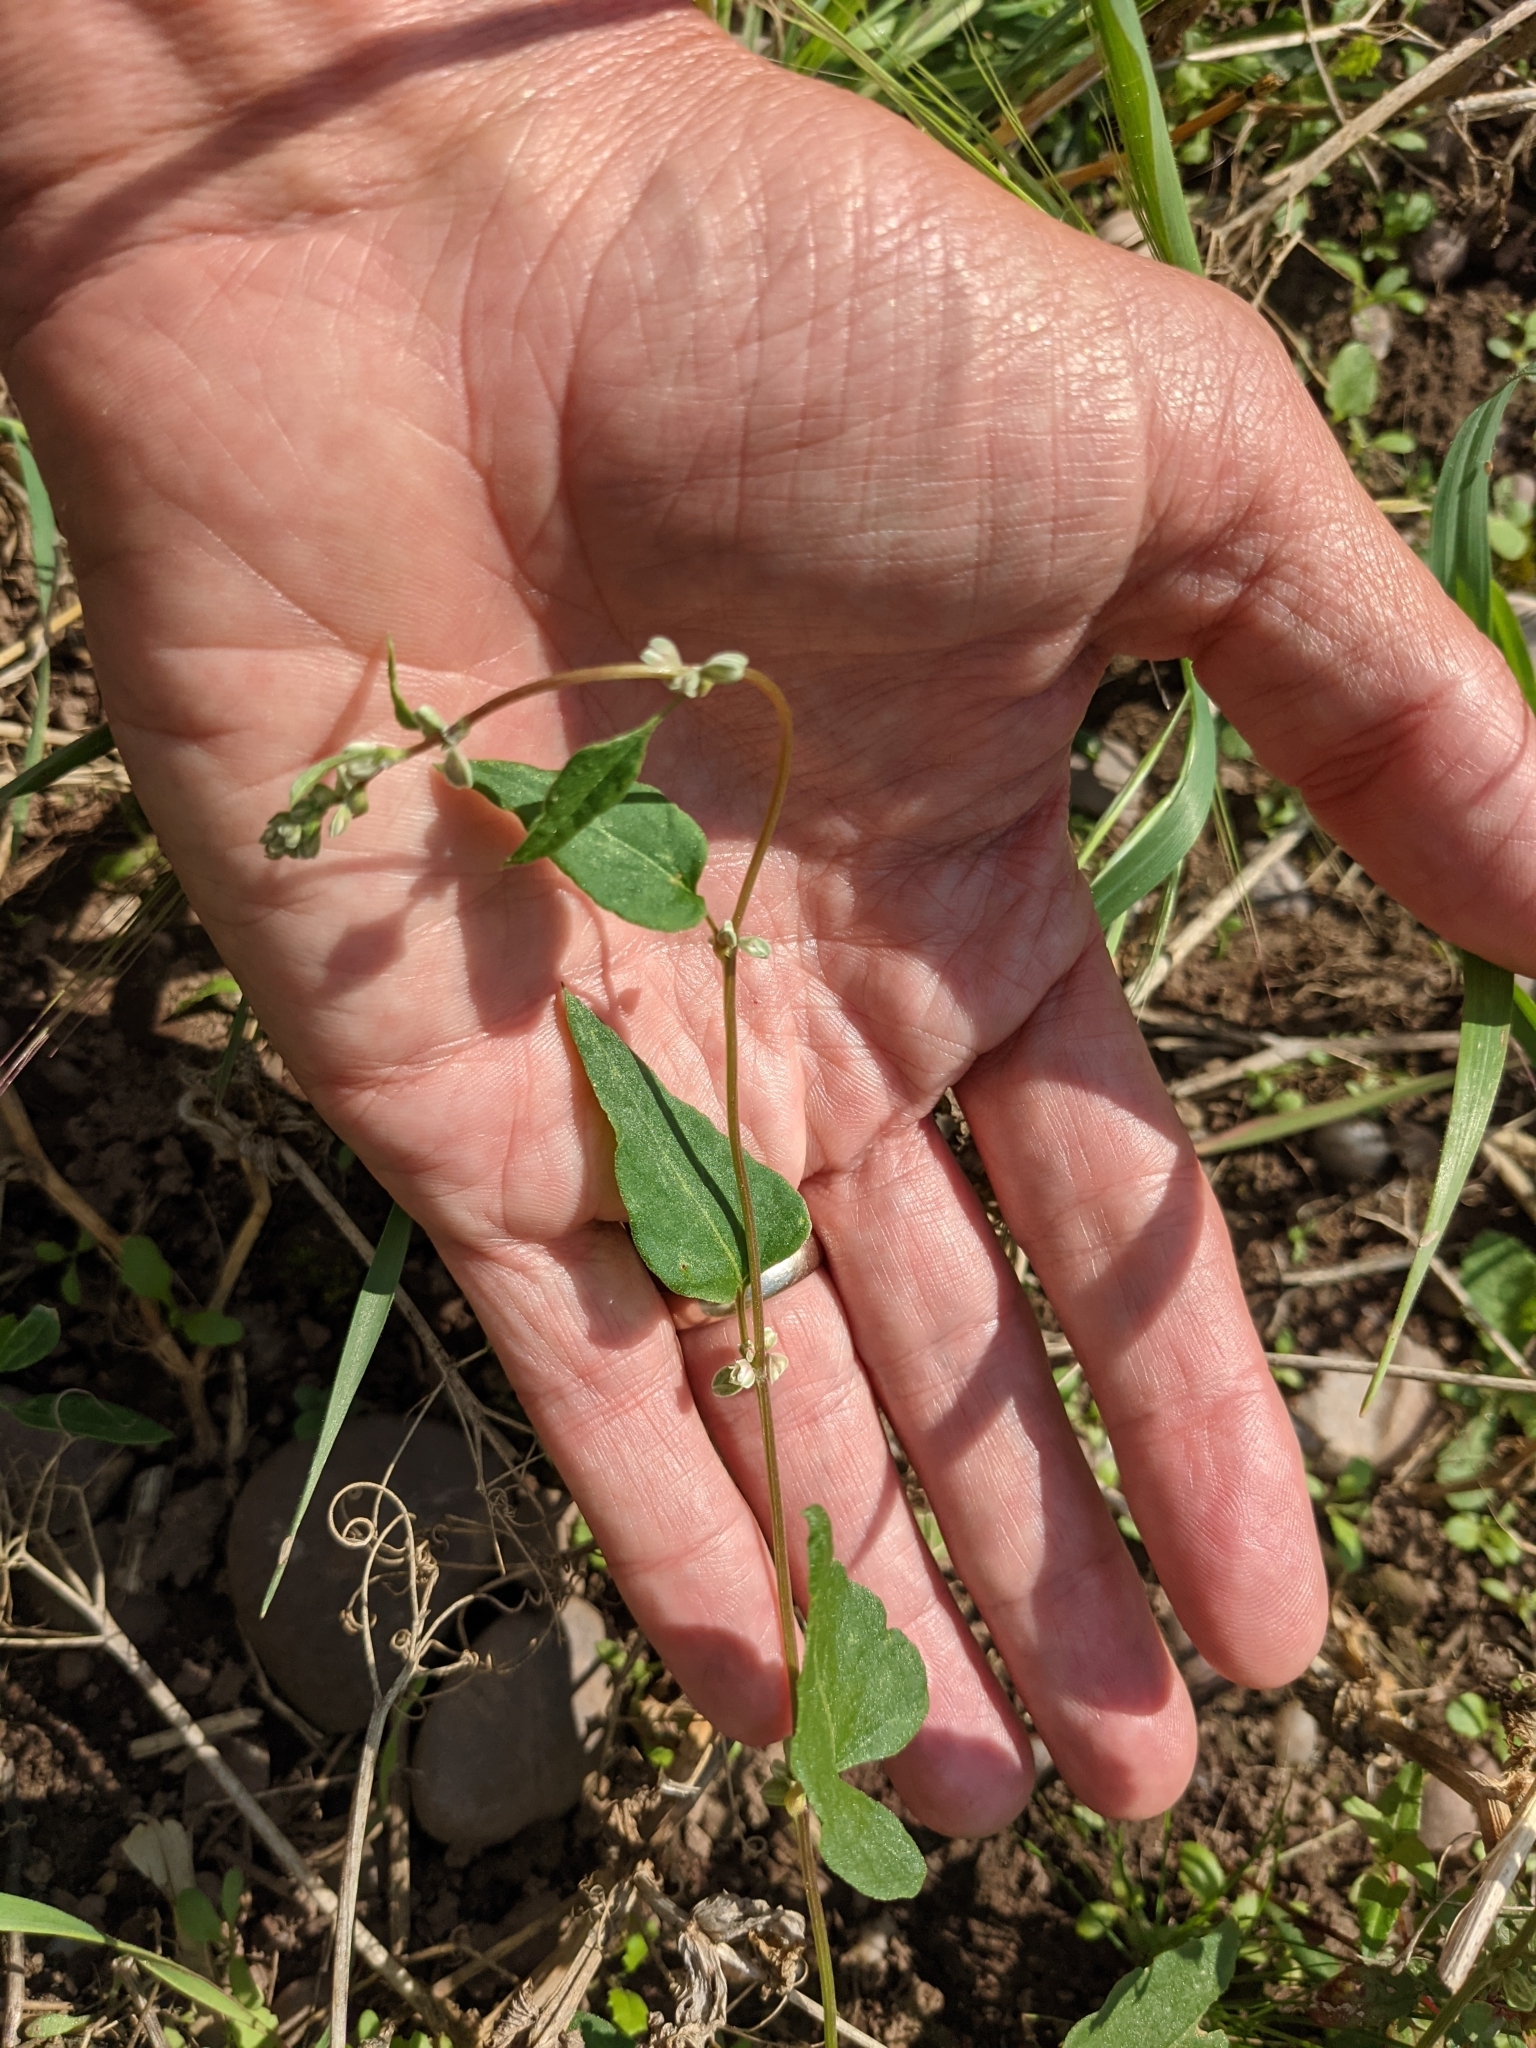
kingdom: Plantae
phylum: Tracheophyta
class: Magnoliopsida
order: Caryophyllales
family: Polygonaceae
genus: Fallopia
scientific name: Fallopia convolvulus
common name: Black bindweed
